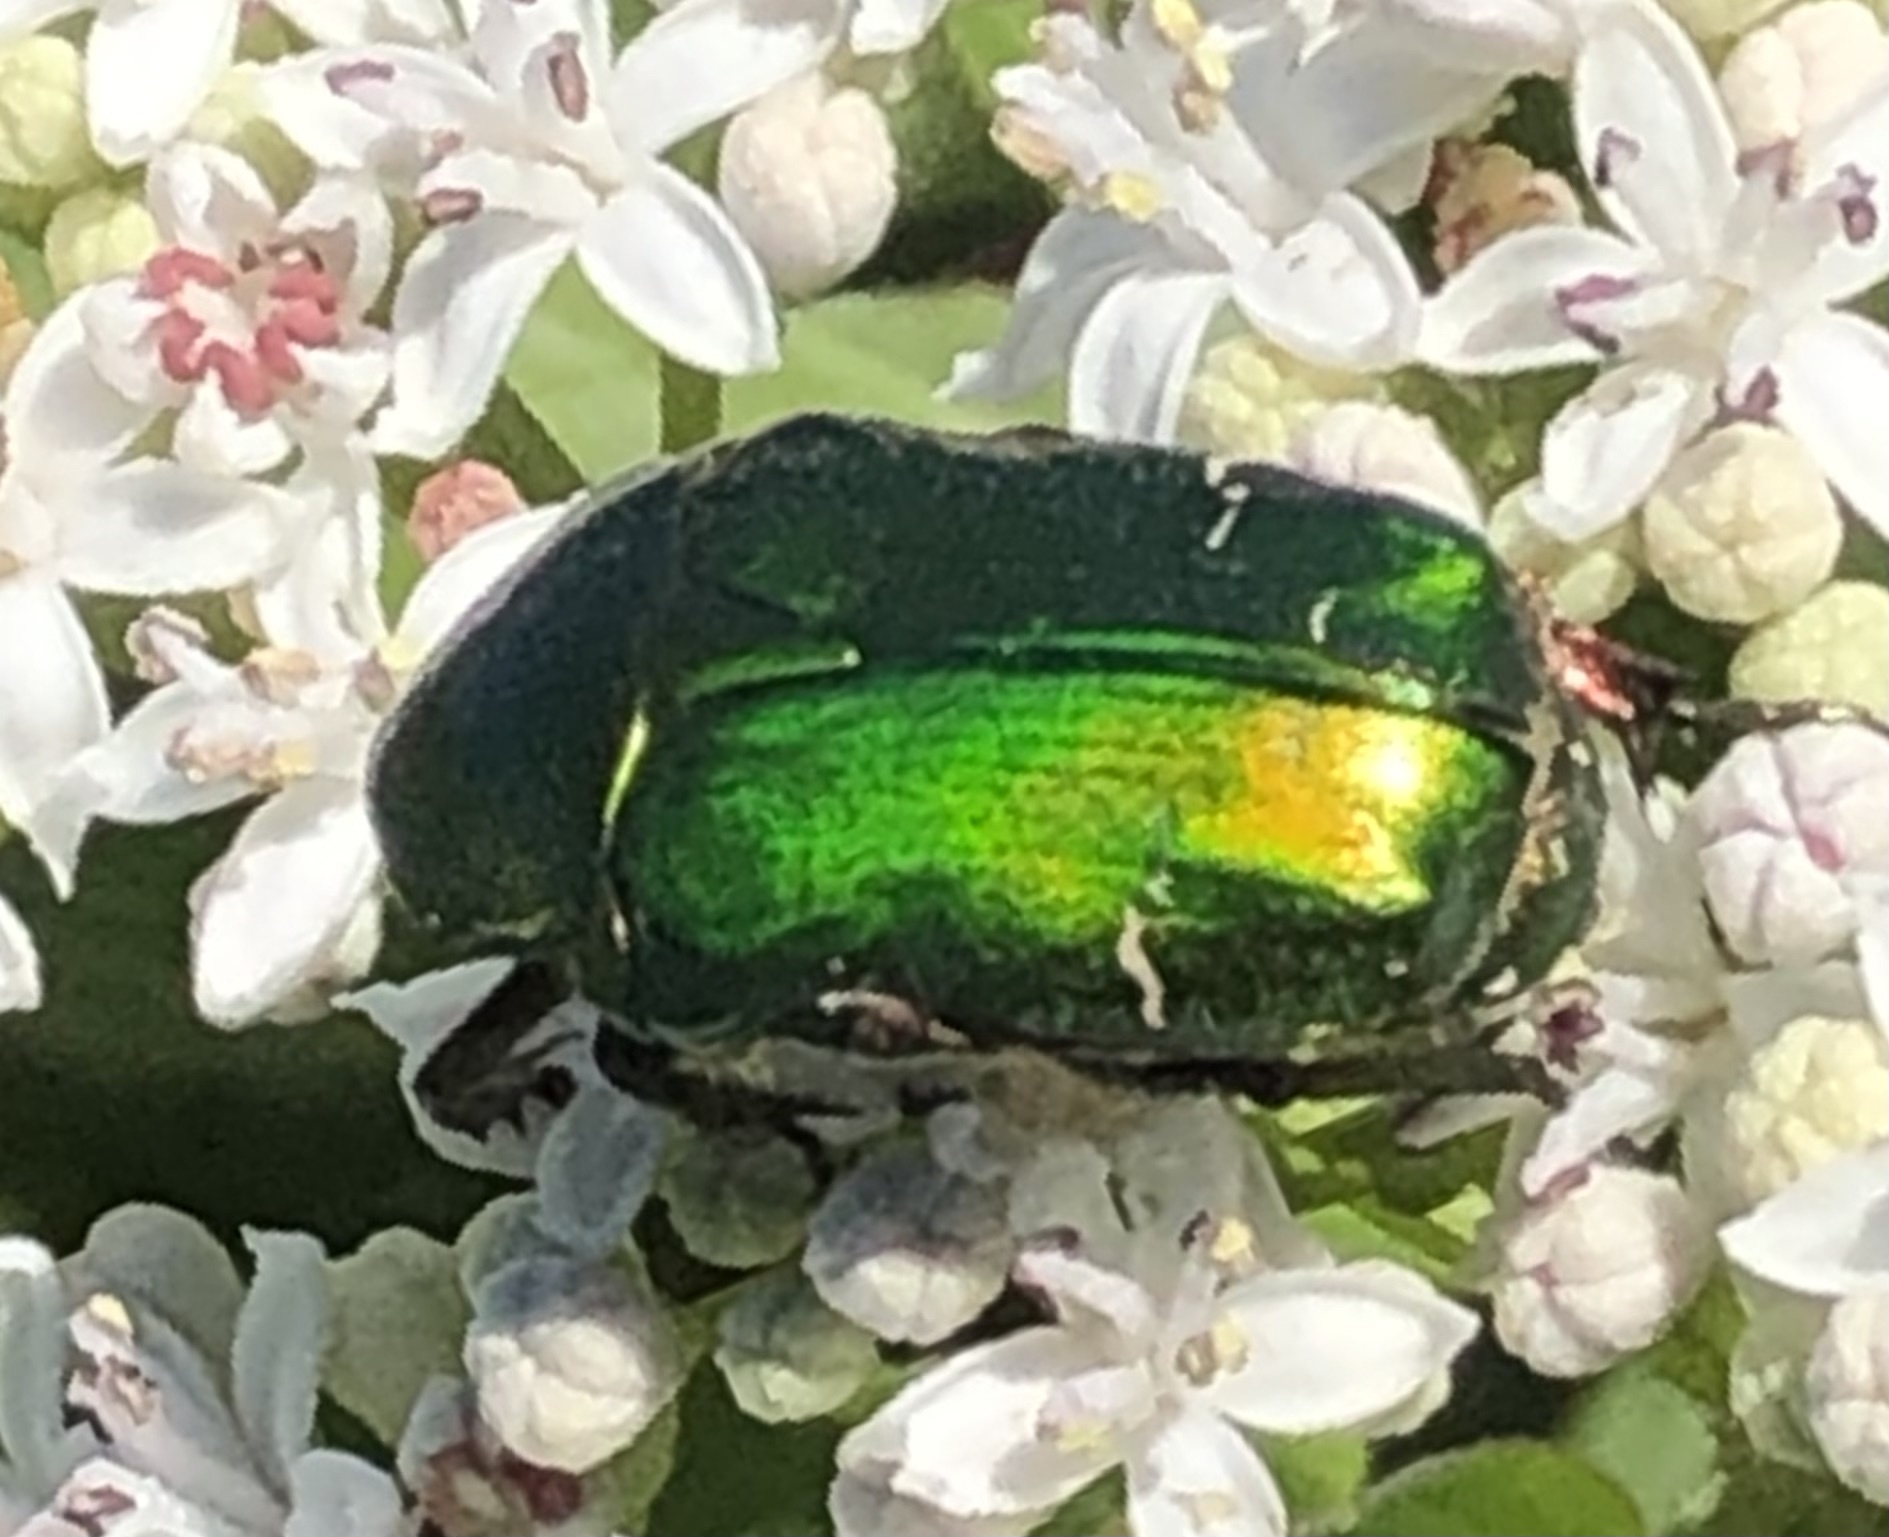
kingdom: Animalia
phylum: Arthropoda
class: Insecta
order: Coleoptera
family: Scarabaeidae
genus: Cetonia
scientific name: Cetonia aurata
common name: Rose chafer
